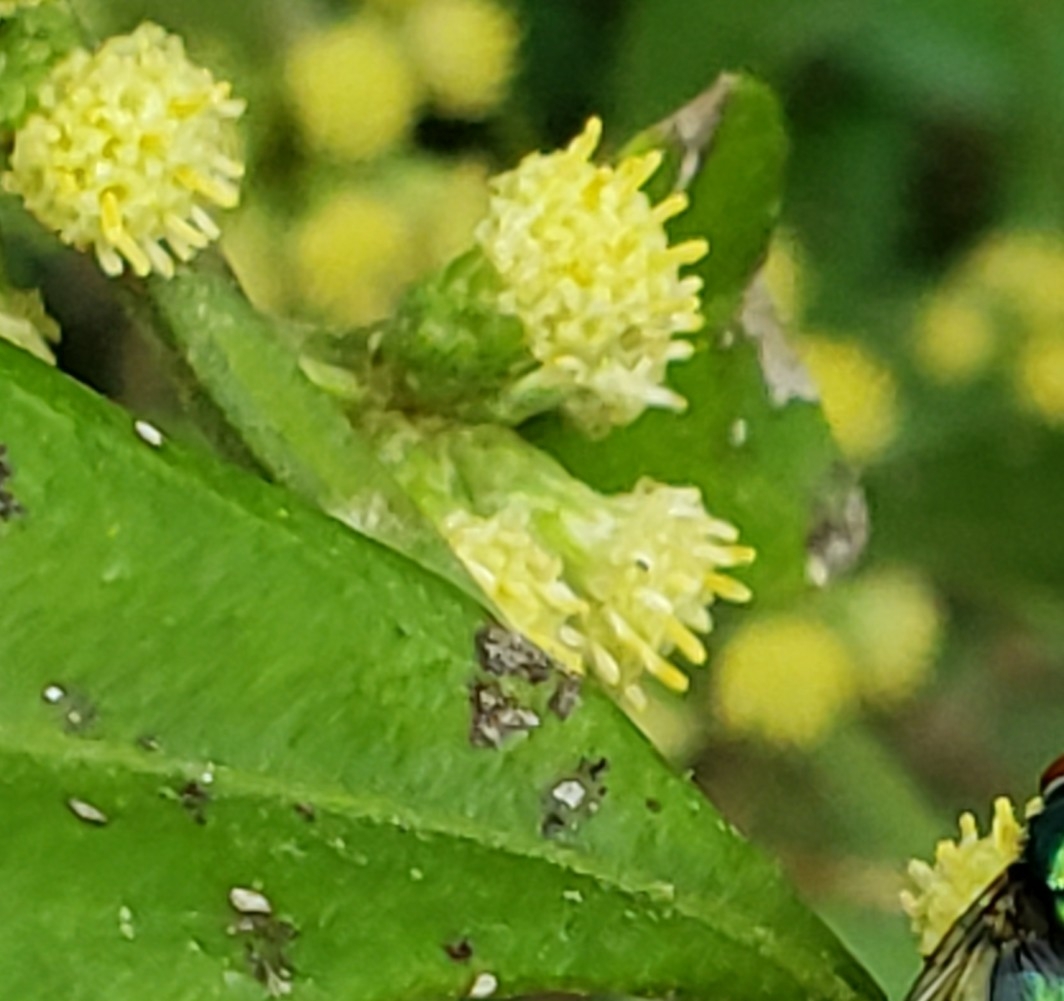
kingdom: Plantae
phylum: Tracheophyta
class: Magnoliopsida
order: Asterales
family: Asteraceae
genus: Baccharis
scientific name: Baccharis glomeruliflora
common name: Silverling groundsel bush
